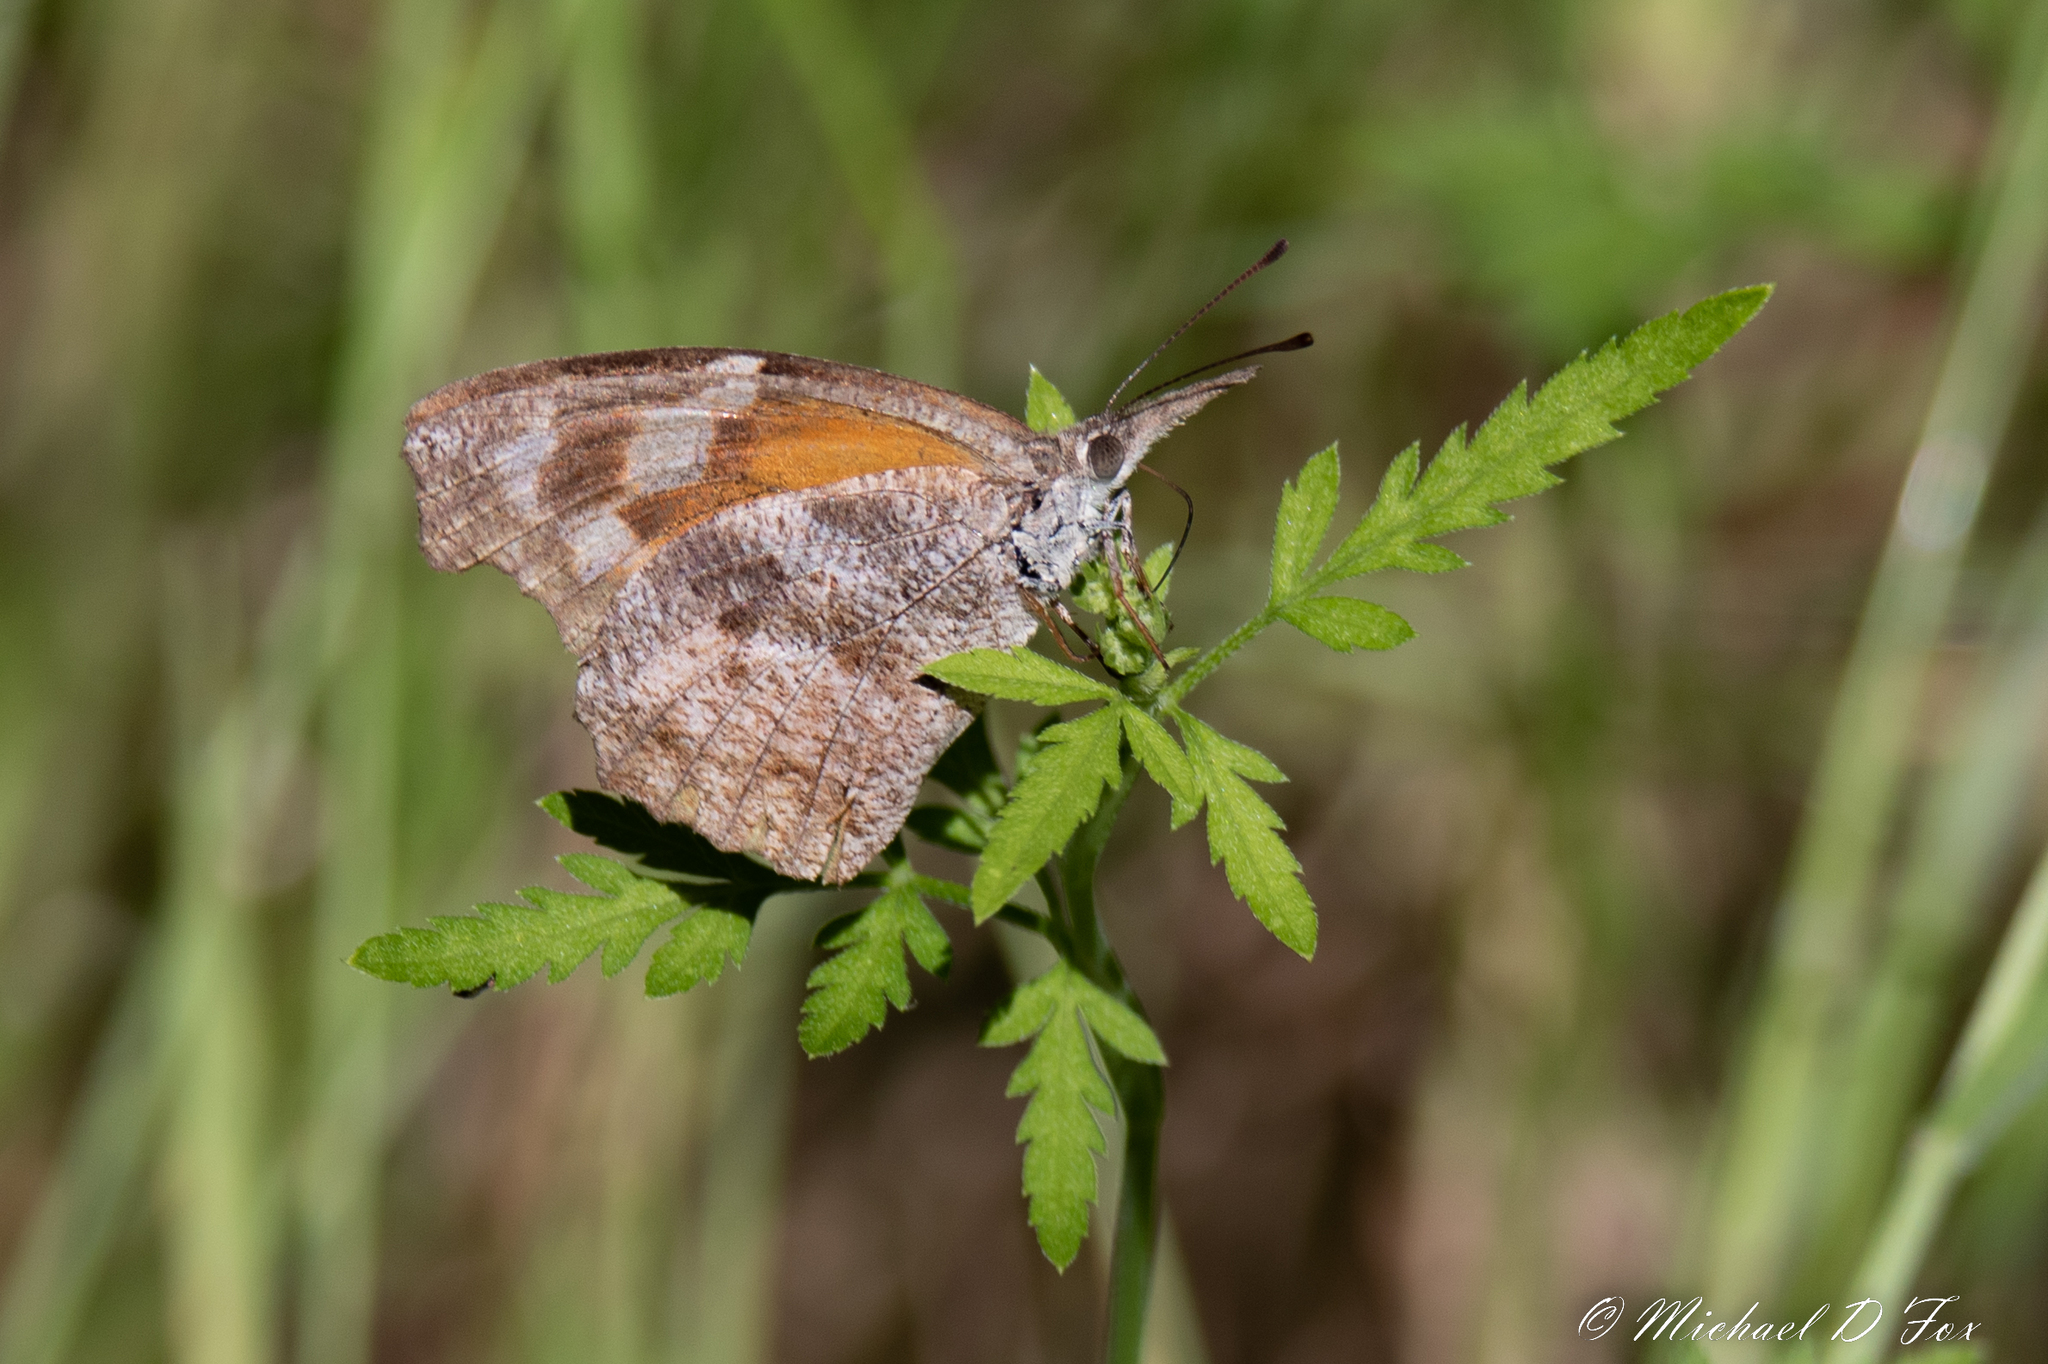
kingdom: Animalia
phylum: Arthropoda
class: Insecta
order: Lepidoptera
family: Nymphalidae
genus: Libytheana
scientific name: Libytheana carinenta
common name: American snout
